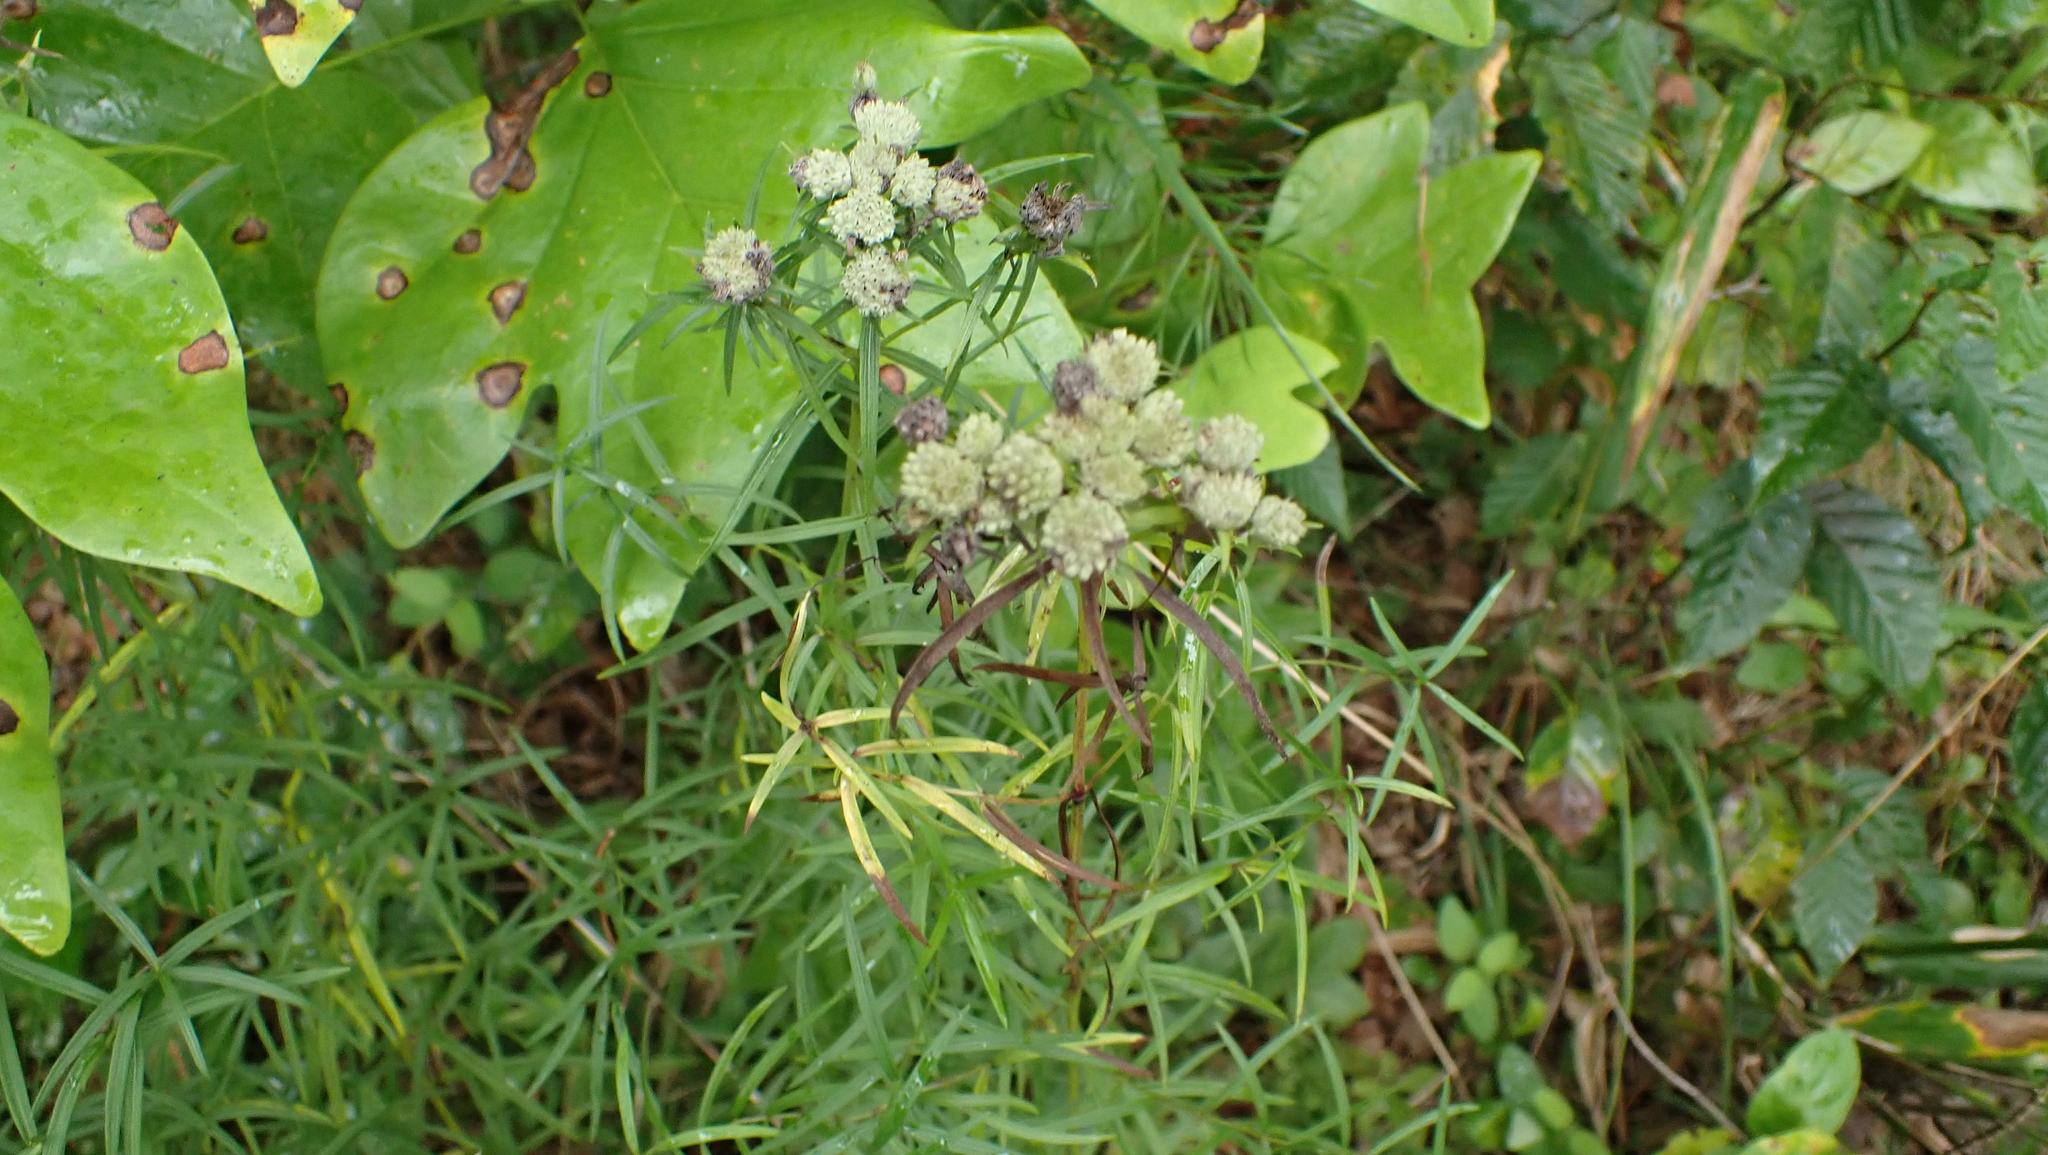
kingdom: Plantae
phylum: Tracheophyta
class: Magnoliopsida
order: Lamiales
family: Lamiaceae
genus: Pycnanthemum
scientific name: Pycnanthemum tenuifolium
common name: Narrow-leaf mountain-mint
